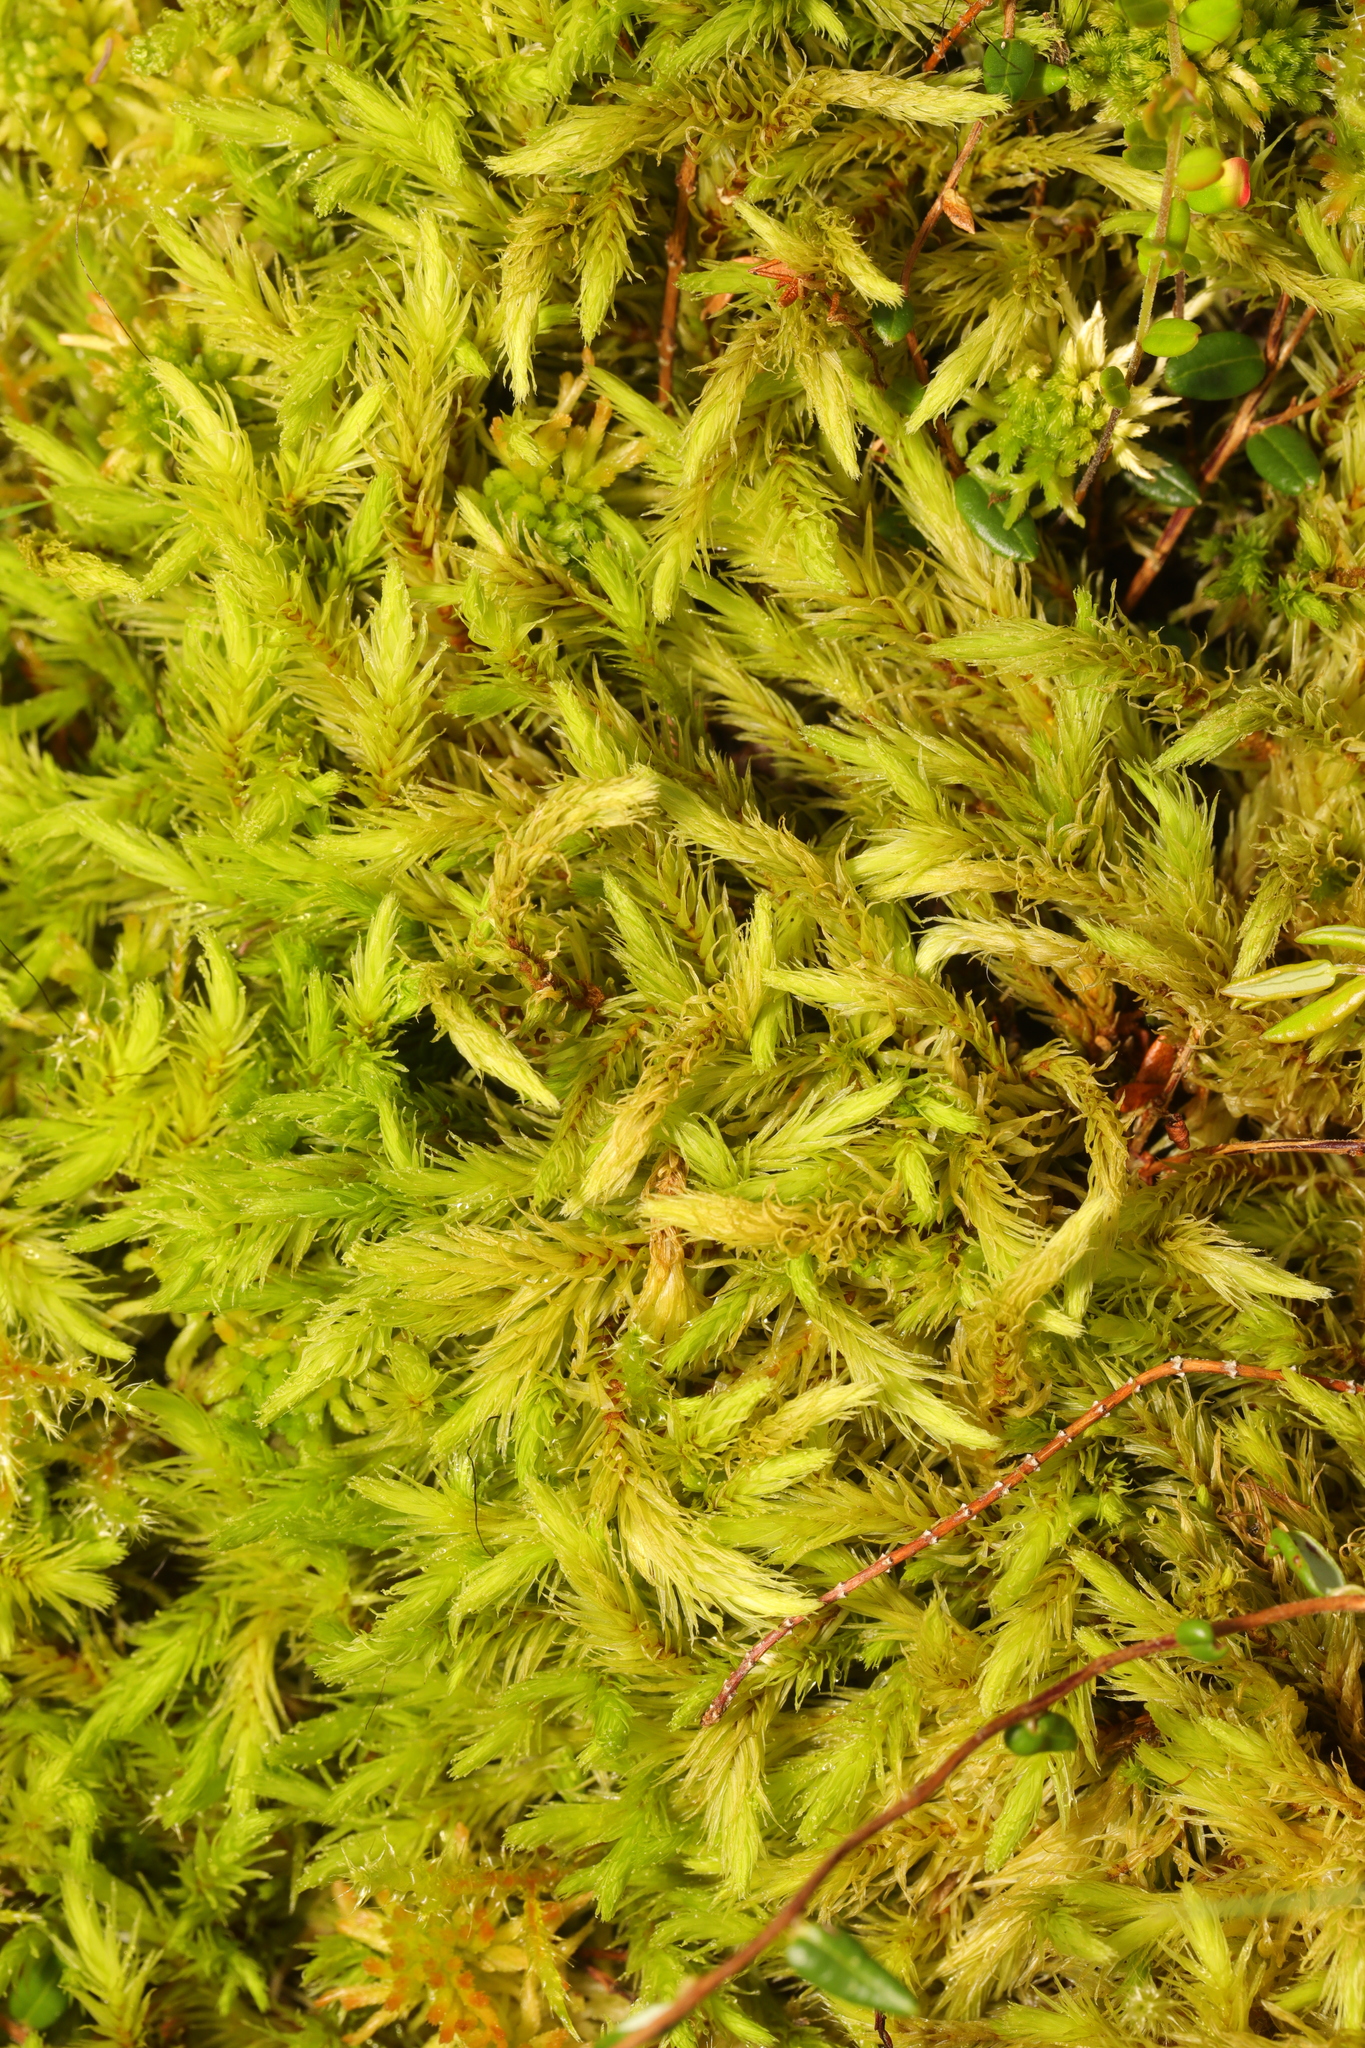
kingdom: Plantae
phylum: Bryophyta
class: Bryopsida
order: Aulacomniales
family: Aulacomniaceae
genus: Aulacomnium
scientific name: Aulacomnium palustre
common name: Bog groove-moss
